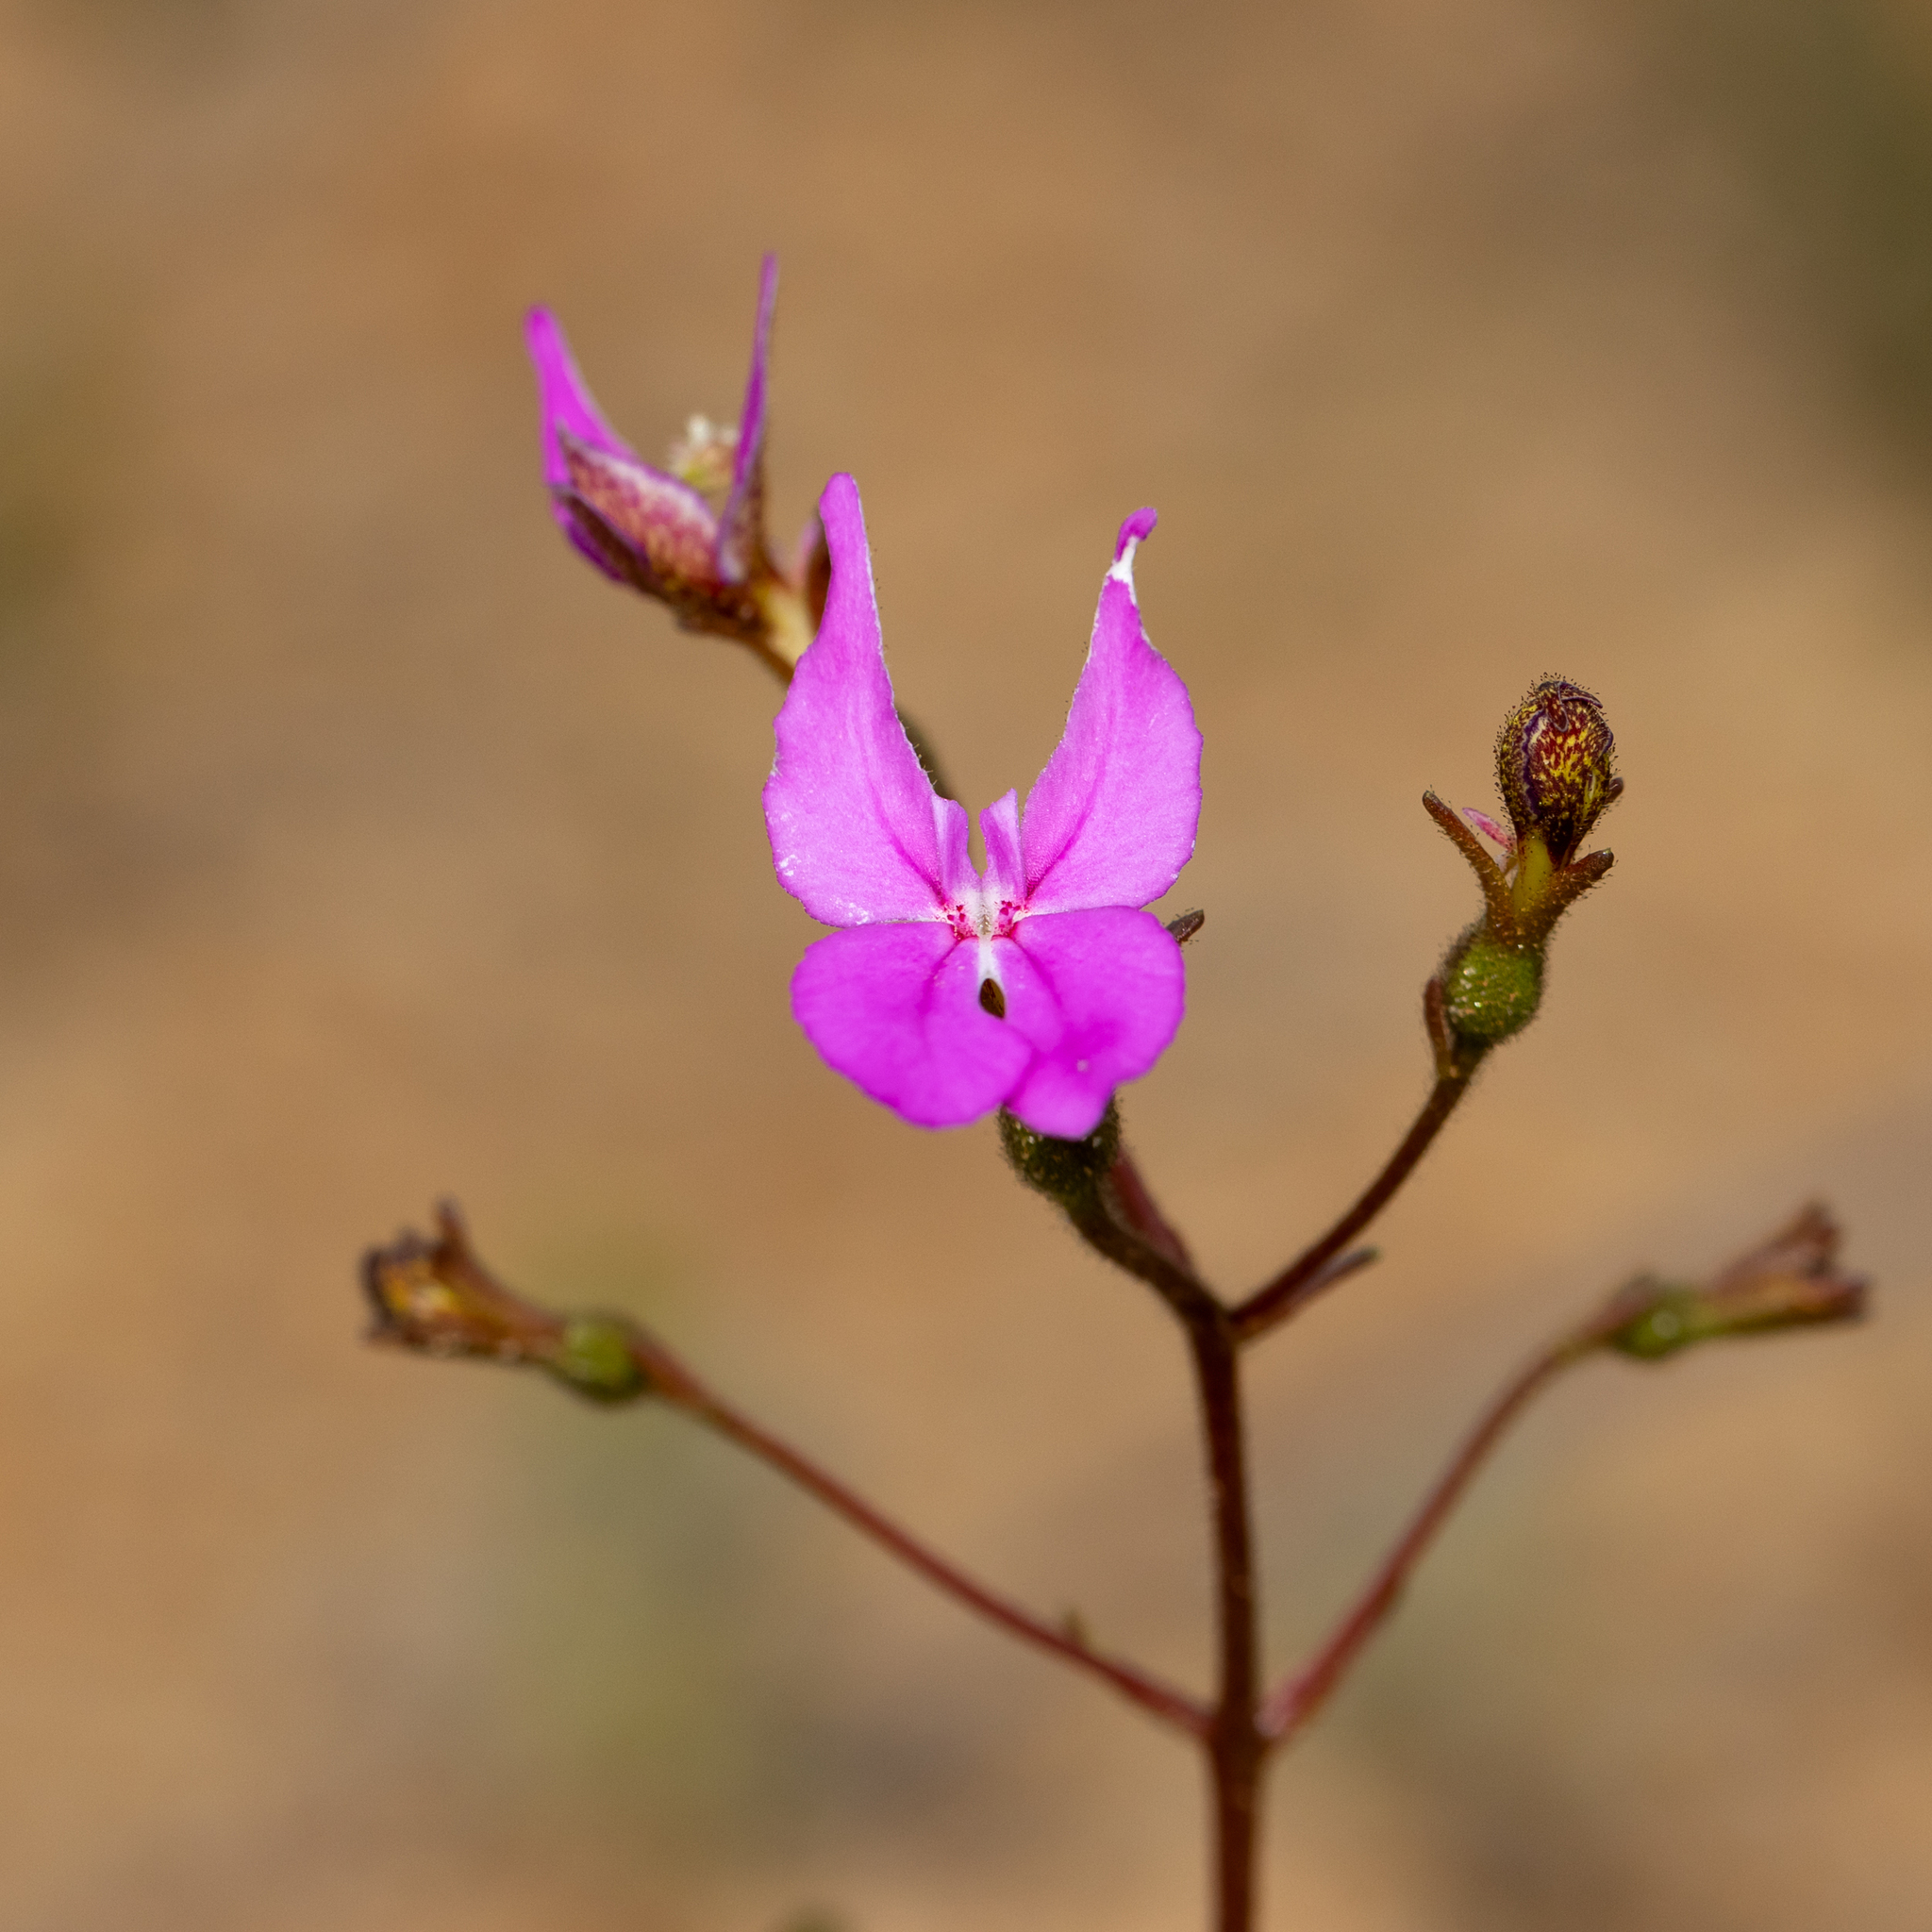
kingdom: Plantae
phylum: Tracheophyta
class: Magnoliopsida
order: Asterales
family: Stylidiaceae
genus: Stylidium
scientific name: Stylidium macranthum
